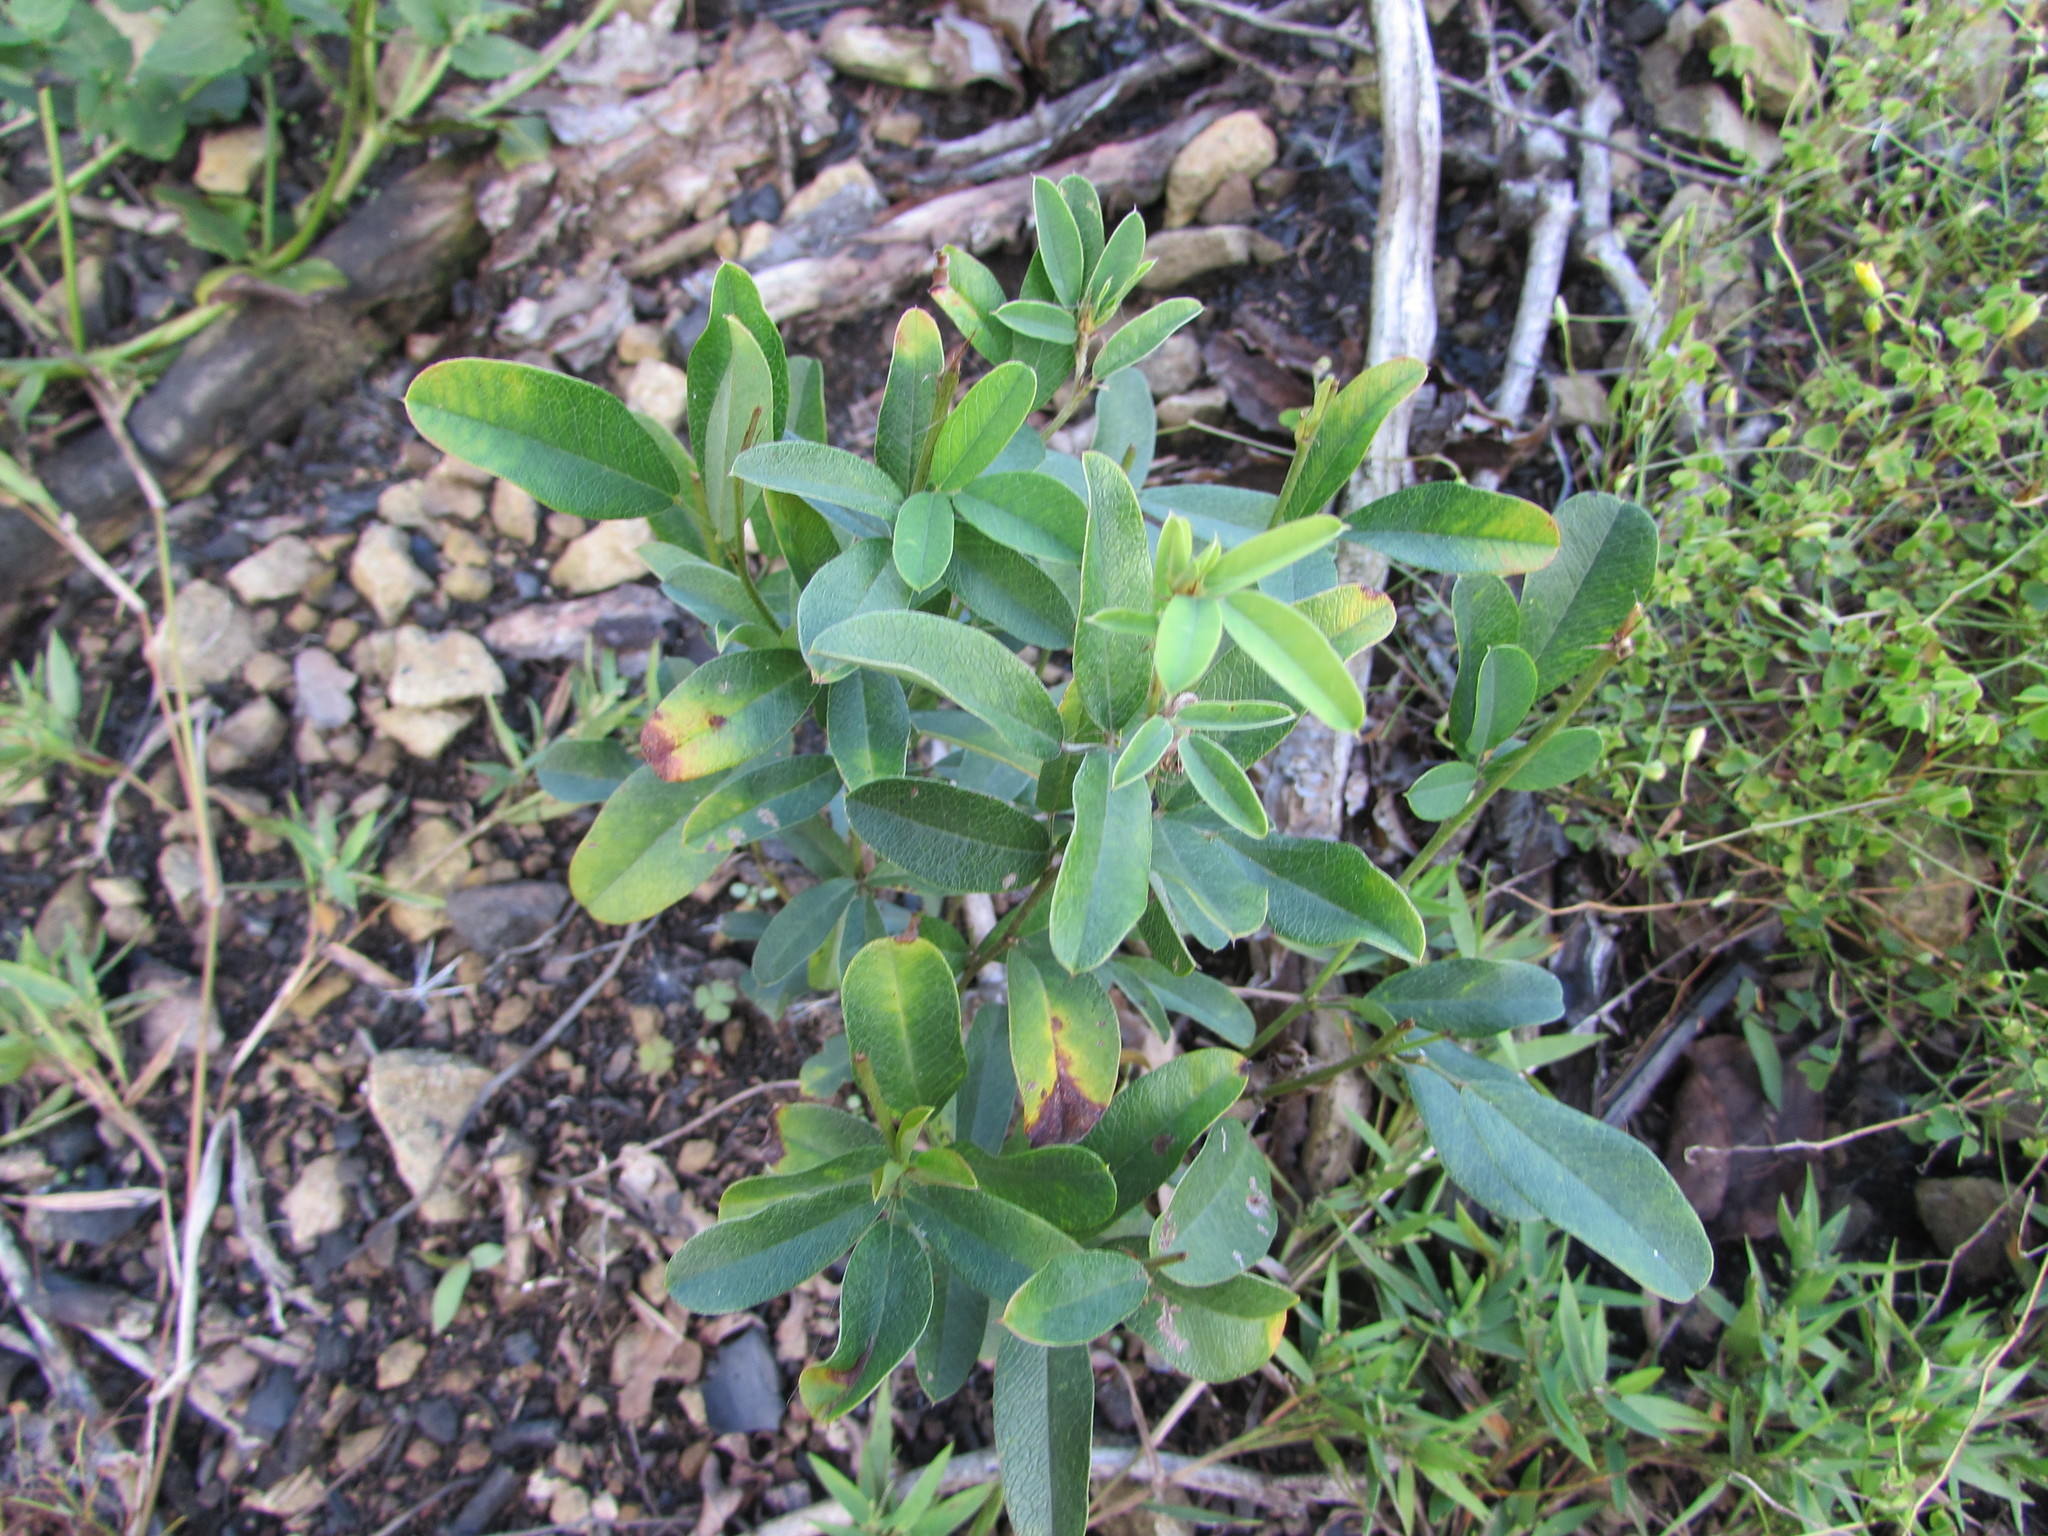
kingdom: Plantae
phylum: Tracheophyta
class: Magnoliopsida
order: Fabales
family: Fabaceae
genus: Lespedeza
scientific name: Lespedeza capitata
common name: Dusty clover
